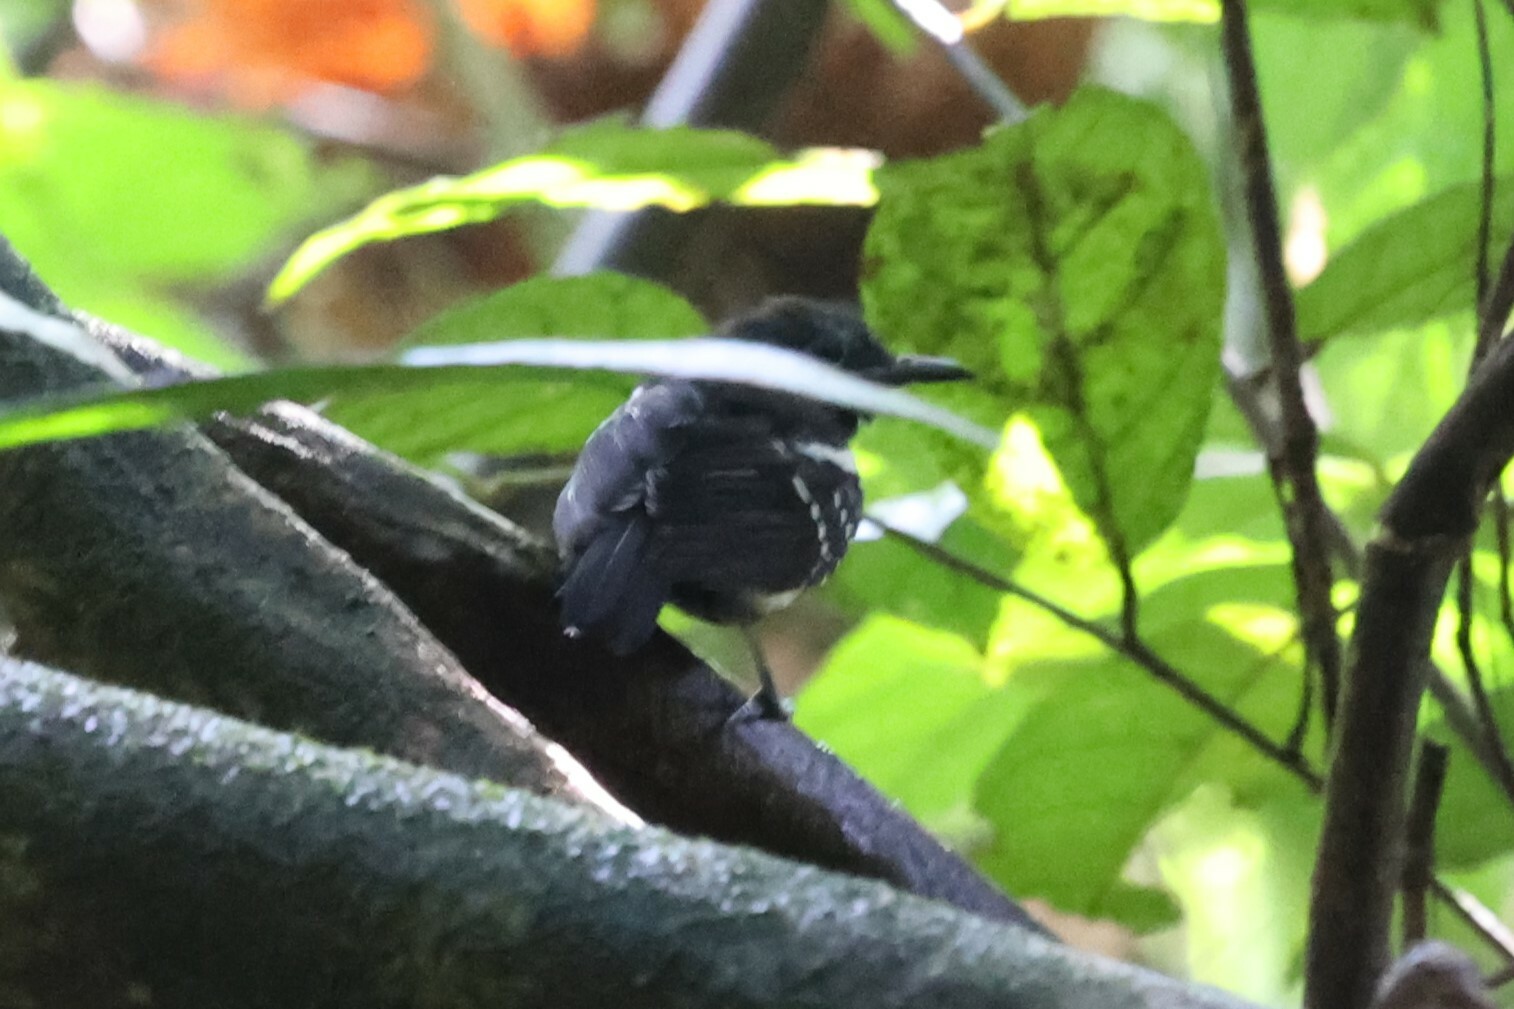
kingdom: Animalia
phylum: Chordata
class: Aves
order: Passeriformes
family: Thamnophilidae
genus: Myrmotherula
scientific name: Myrmotherula axillaris
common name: White-flanked antwren
